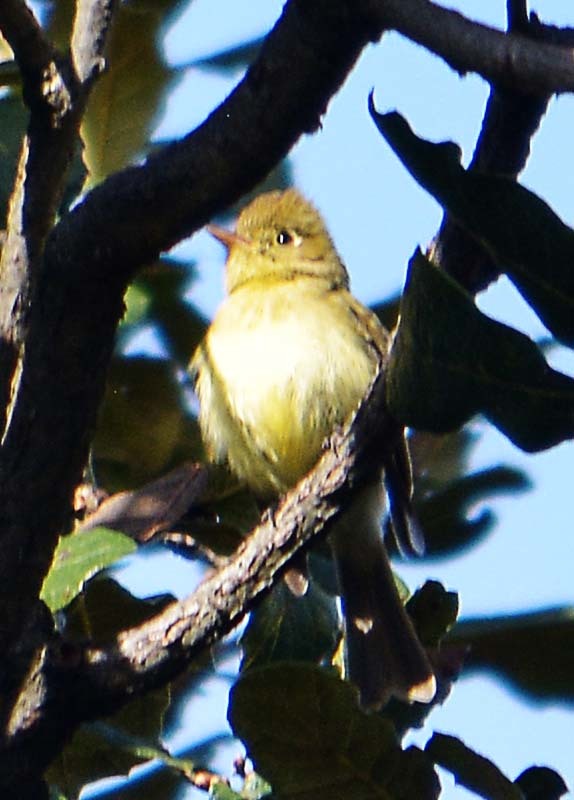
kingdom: Animalia
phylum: Chordata
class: Aves
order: Passeriformes
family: Tyrannidae
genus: Empidonax
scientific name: Empidonax difficilis
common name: Pacific-slope flycatcher
